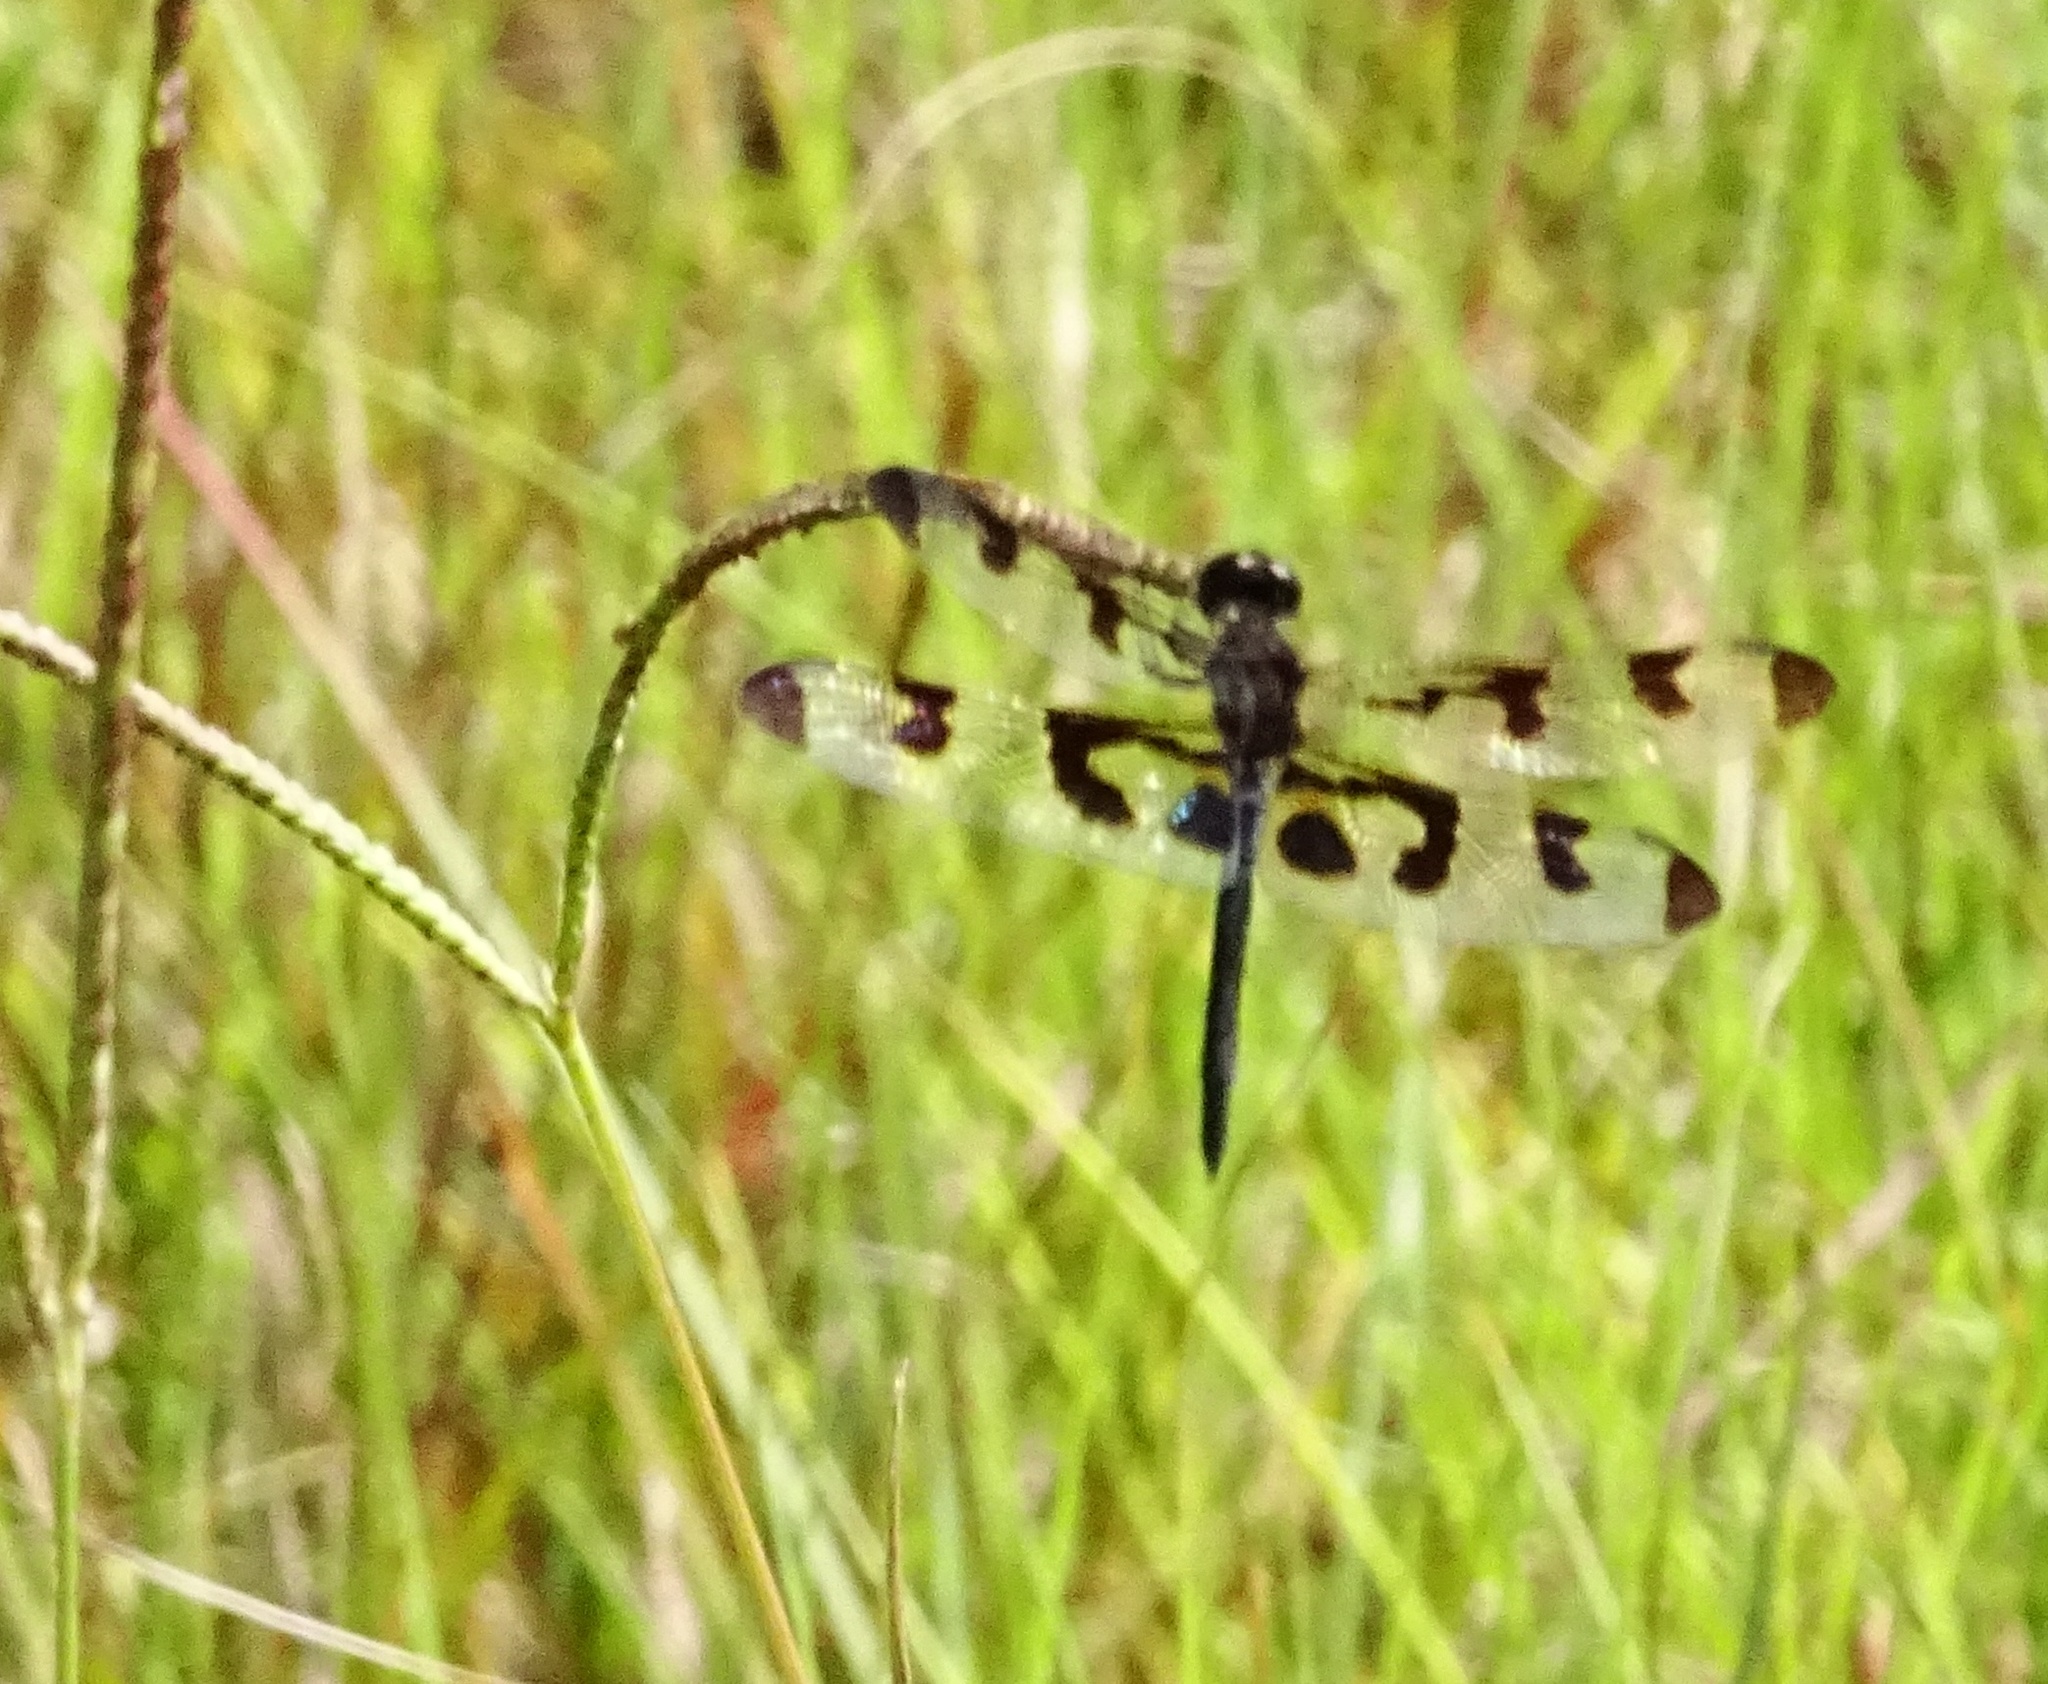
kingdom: Animalia
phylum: Arthropoda
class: Insecta
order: Odonata
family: Libellulidae
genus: Celithemis
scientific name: Celithemis fasciata
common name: Banded pennant
